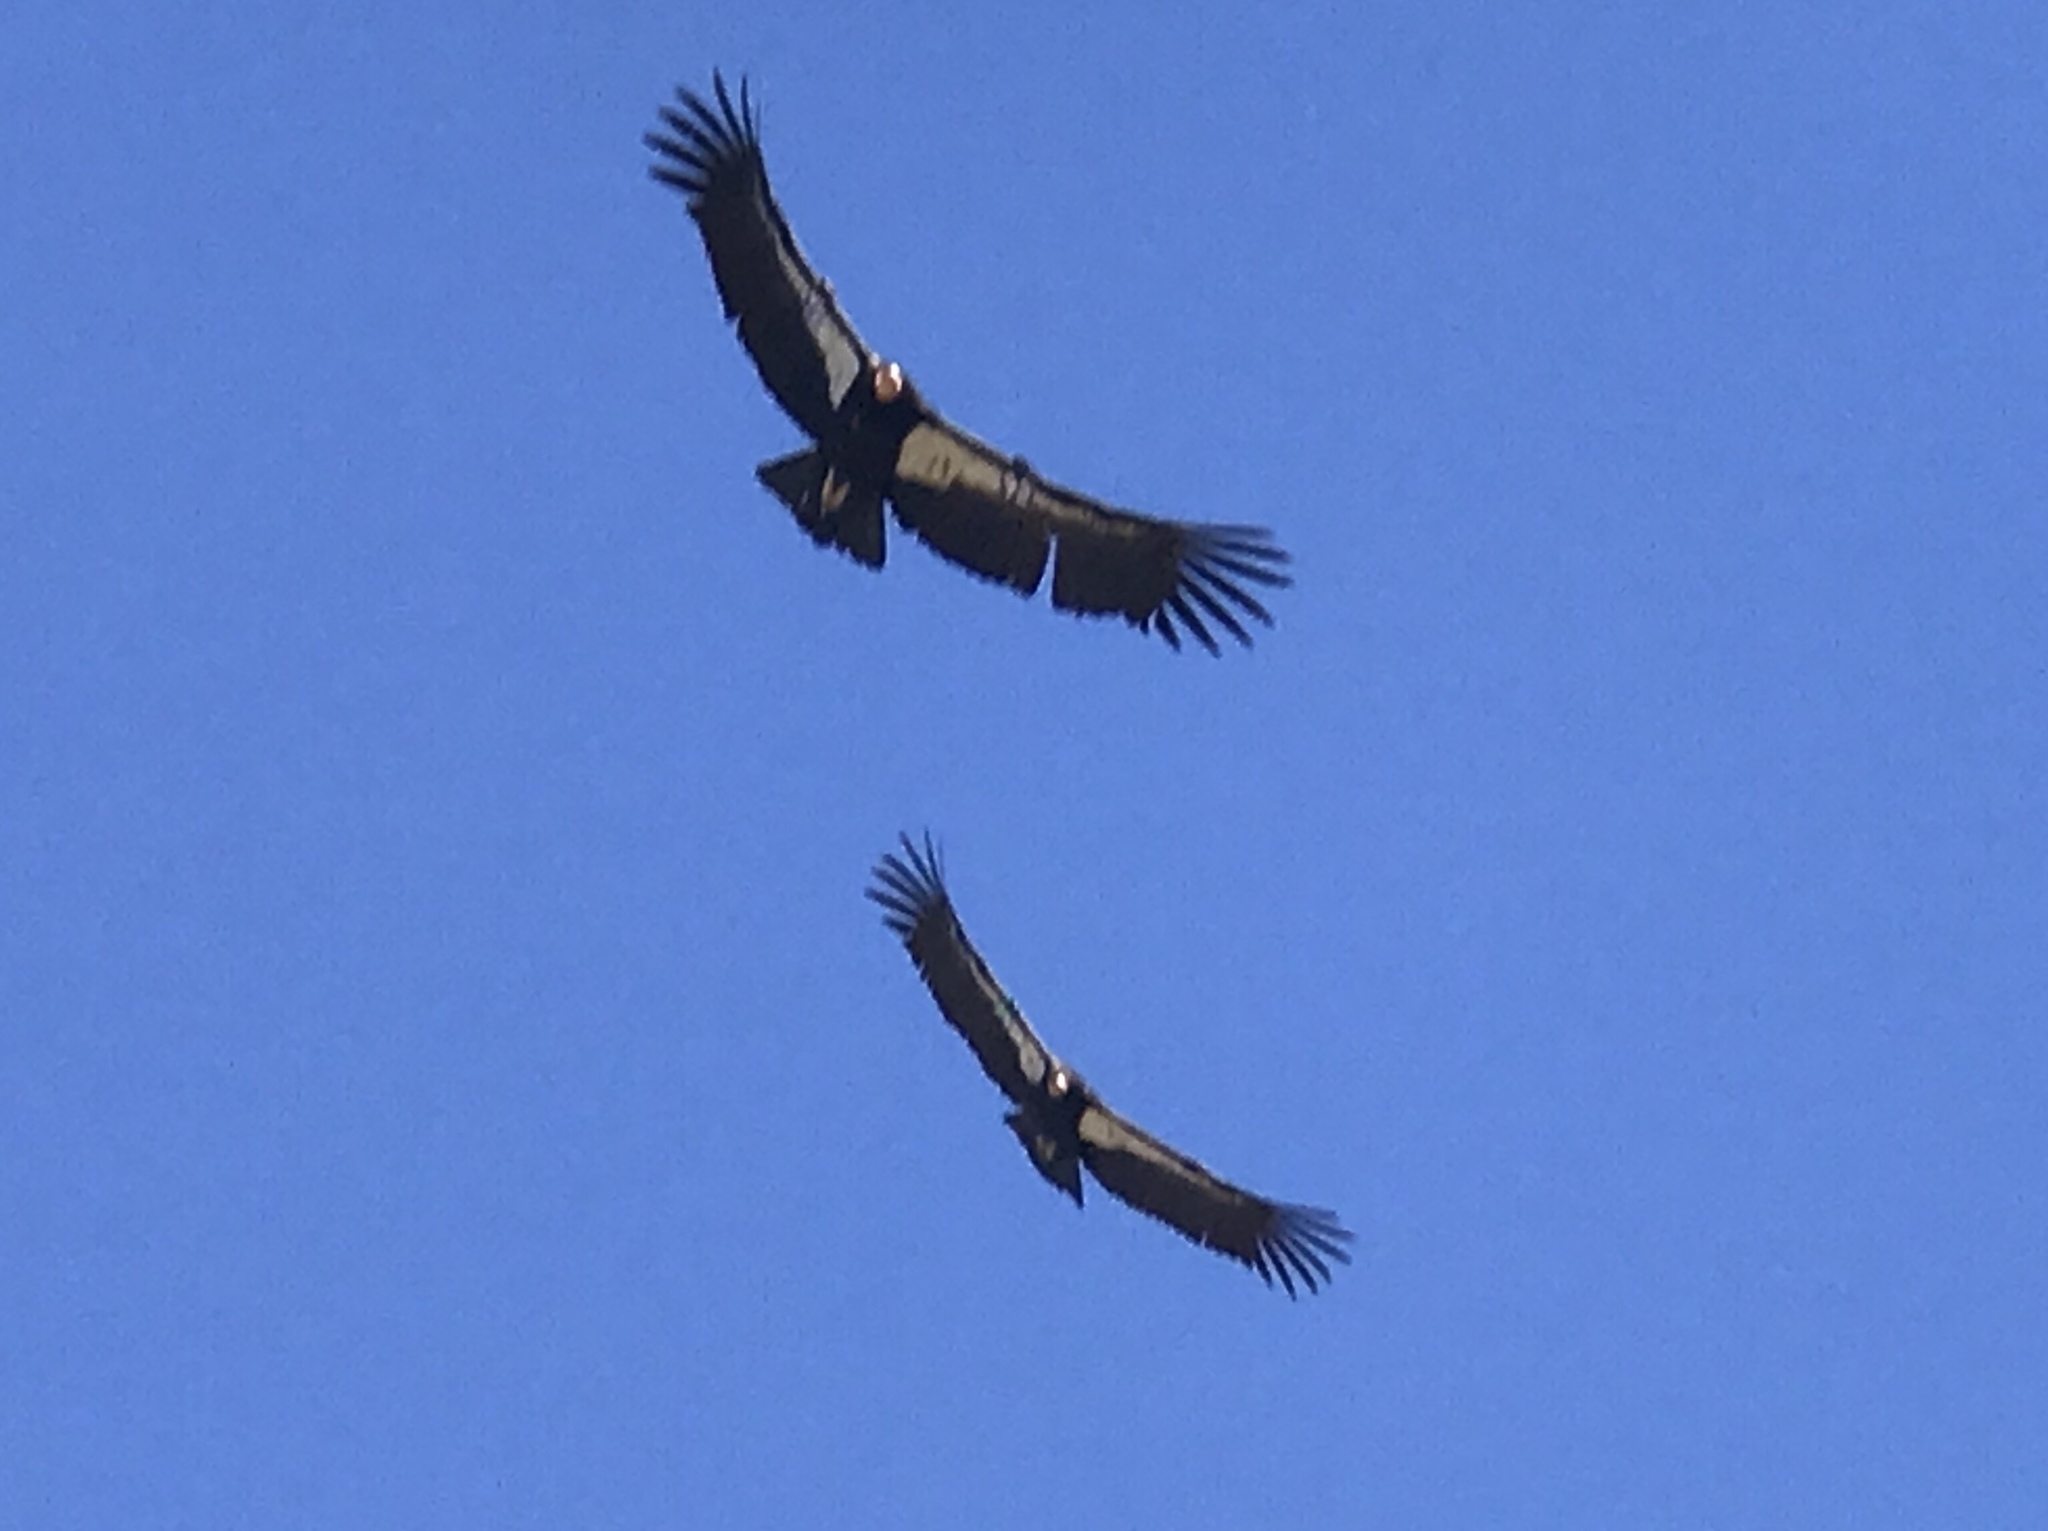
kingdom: Animalia
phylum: Chordata
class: Aves
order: Accipitriformes
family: Cathartidae
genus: Gymnogyps
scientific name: Gymnogyps californianus
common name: California condor
